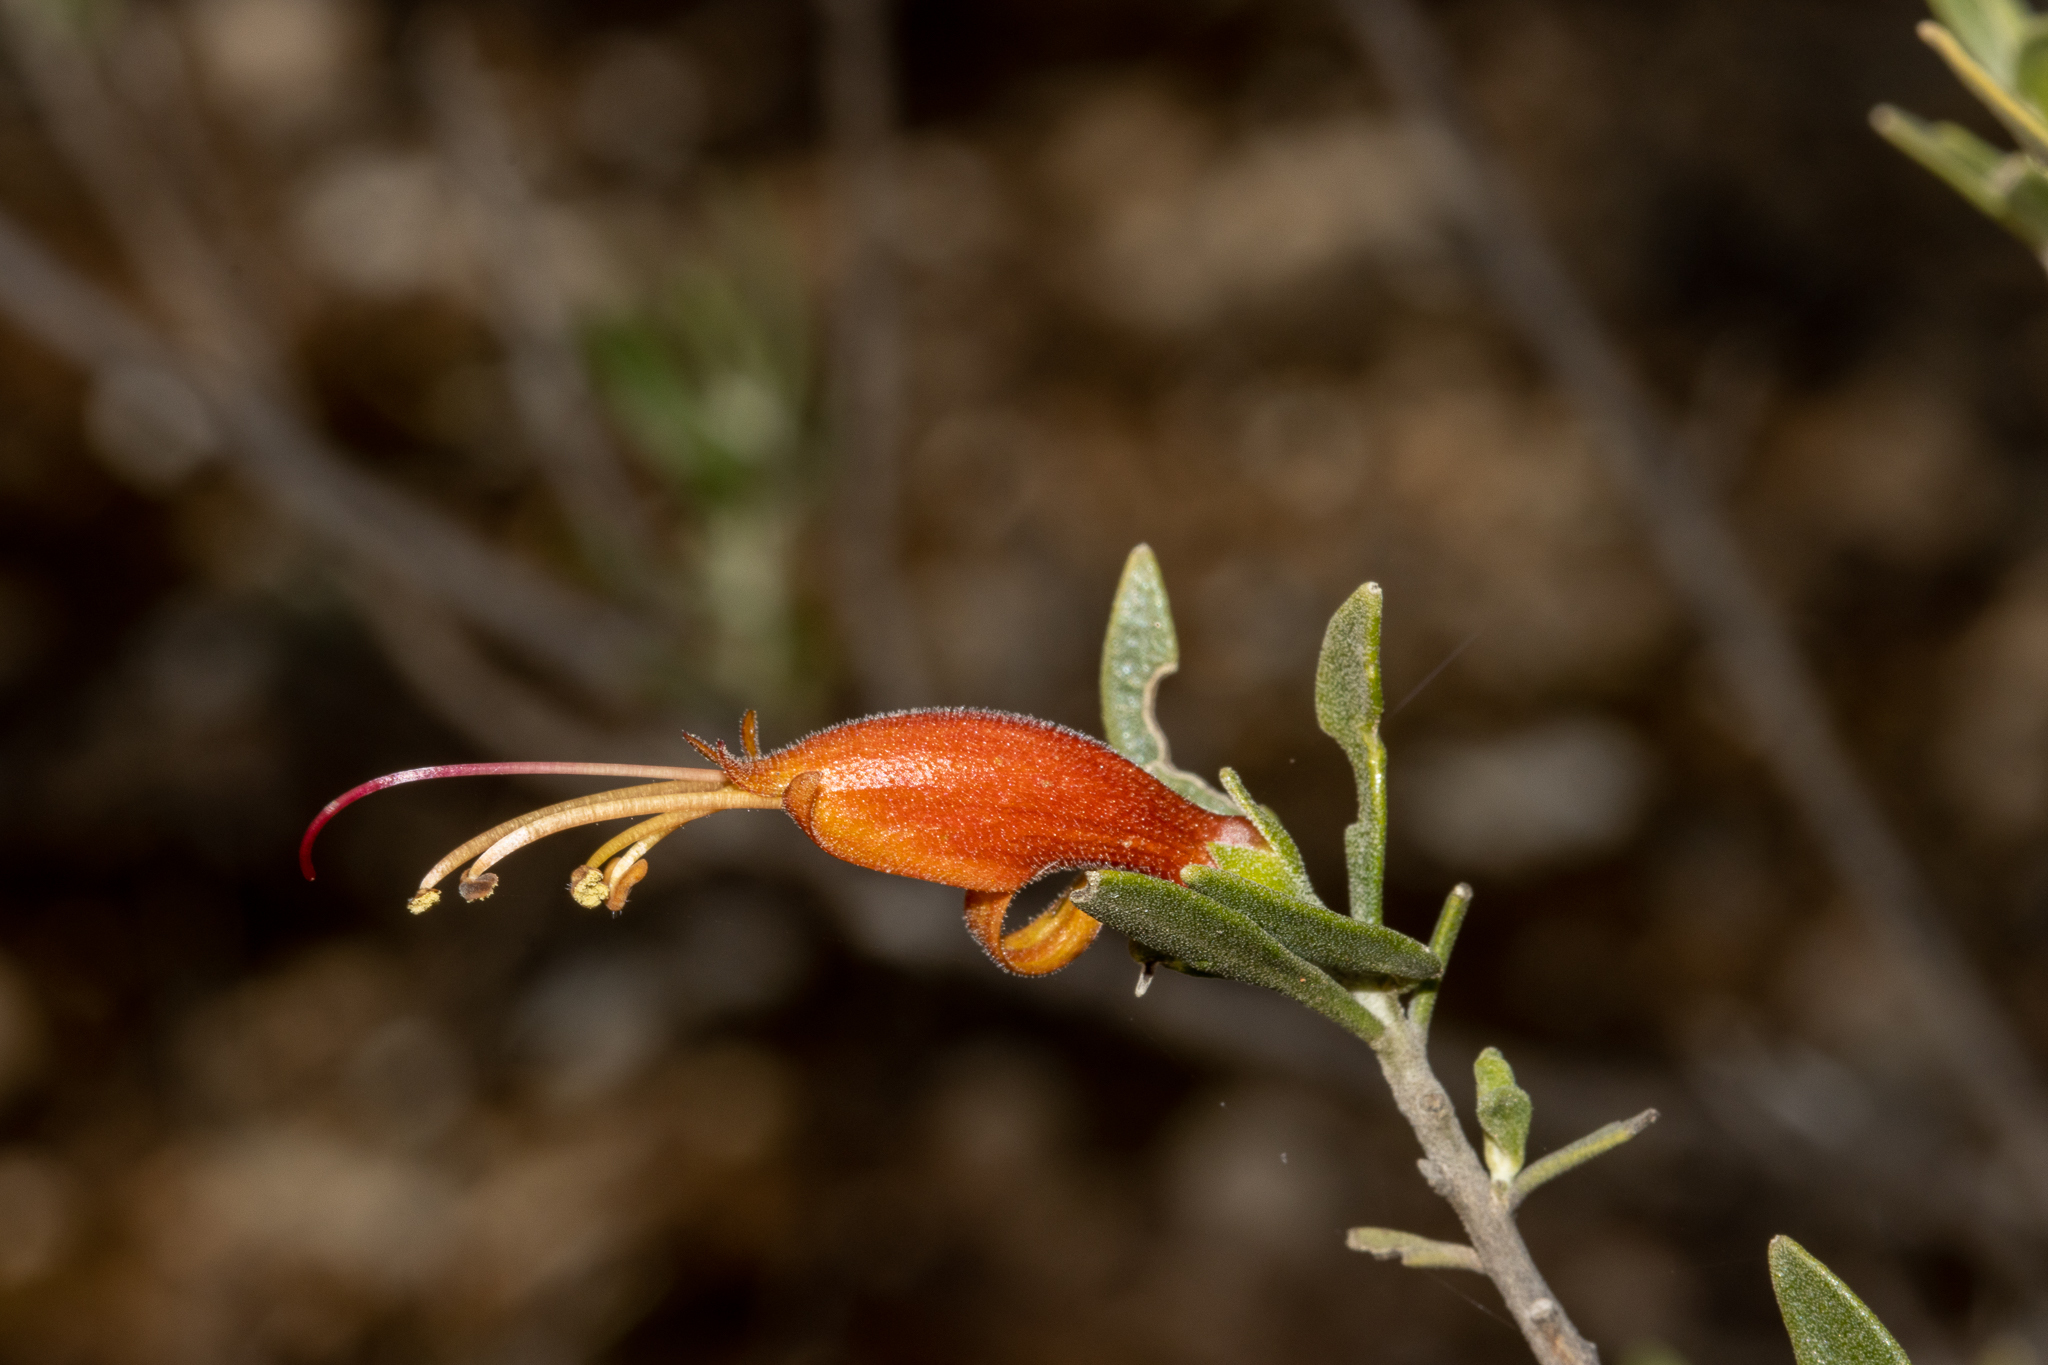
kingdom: Plantae
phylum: Tracheophyta
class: Magnoliopsida
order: Lamiales
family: Scrophulariaceae
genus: Eremophila
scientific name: Eremophila glabra
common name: Black-fuchsia
